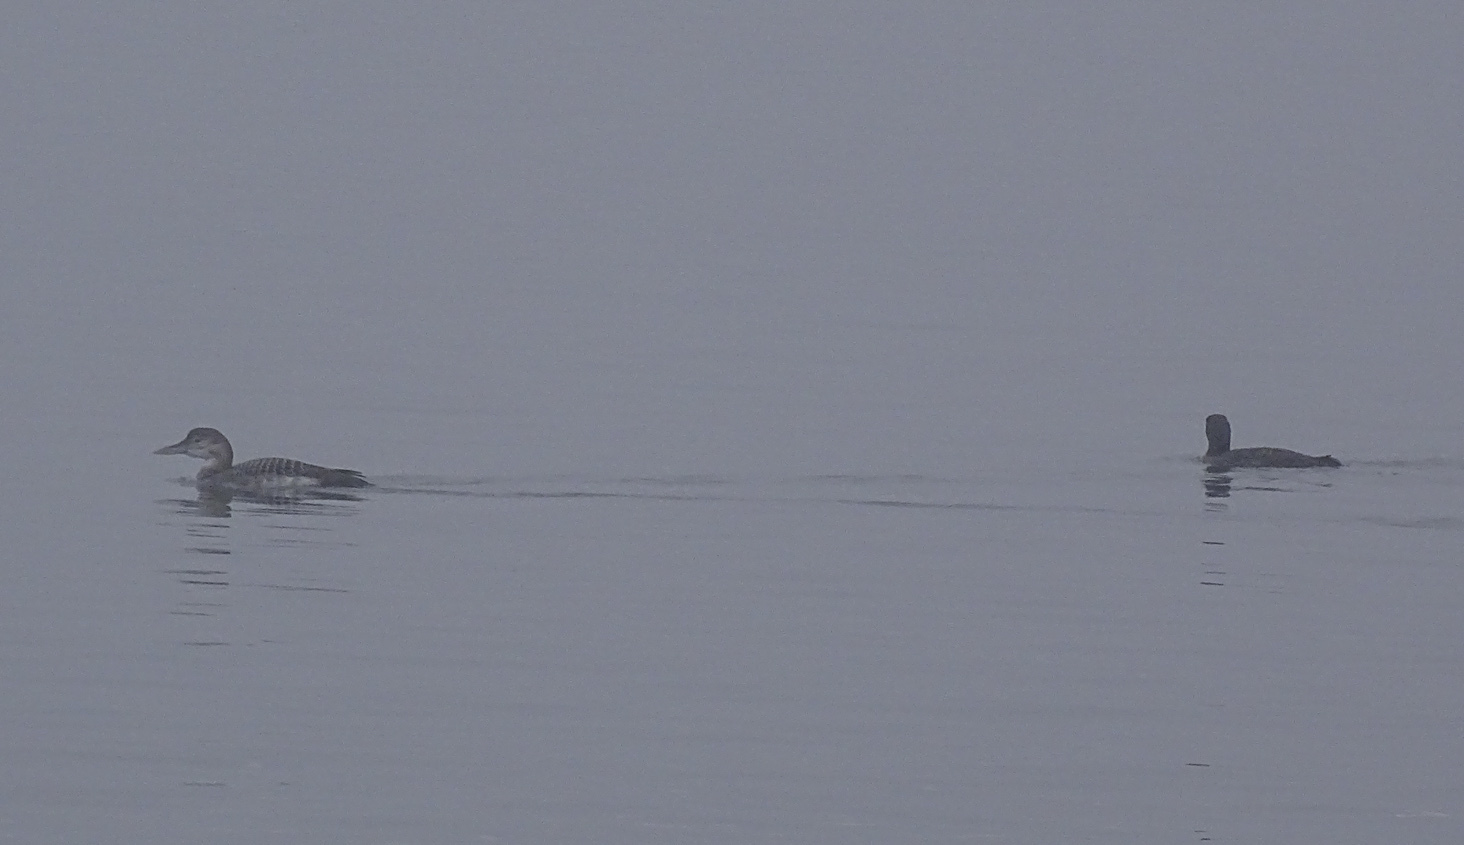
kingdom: Animalia
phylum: Chordata
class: Aves
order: Gaviiformes
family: Gaviidae
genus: Gavia
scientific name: Gavia adamsii
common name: Yellow-billed loon
